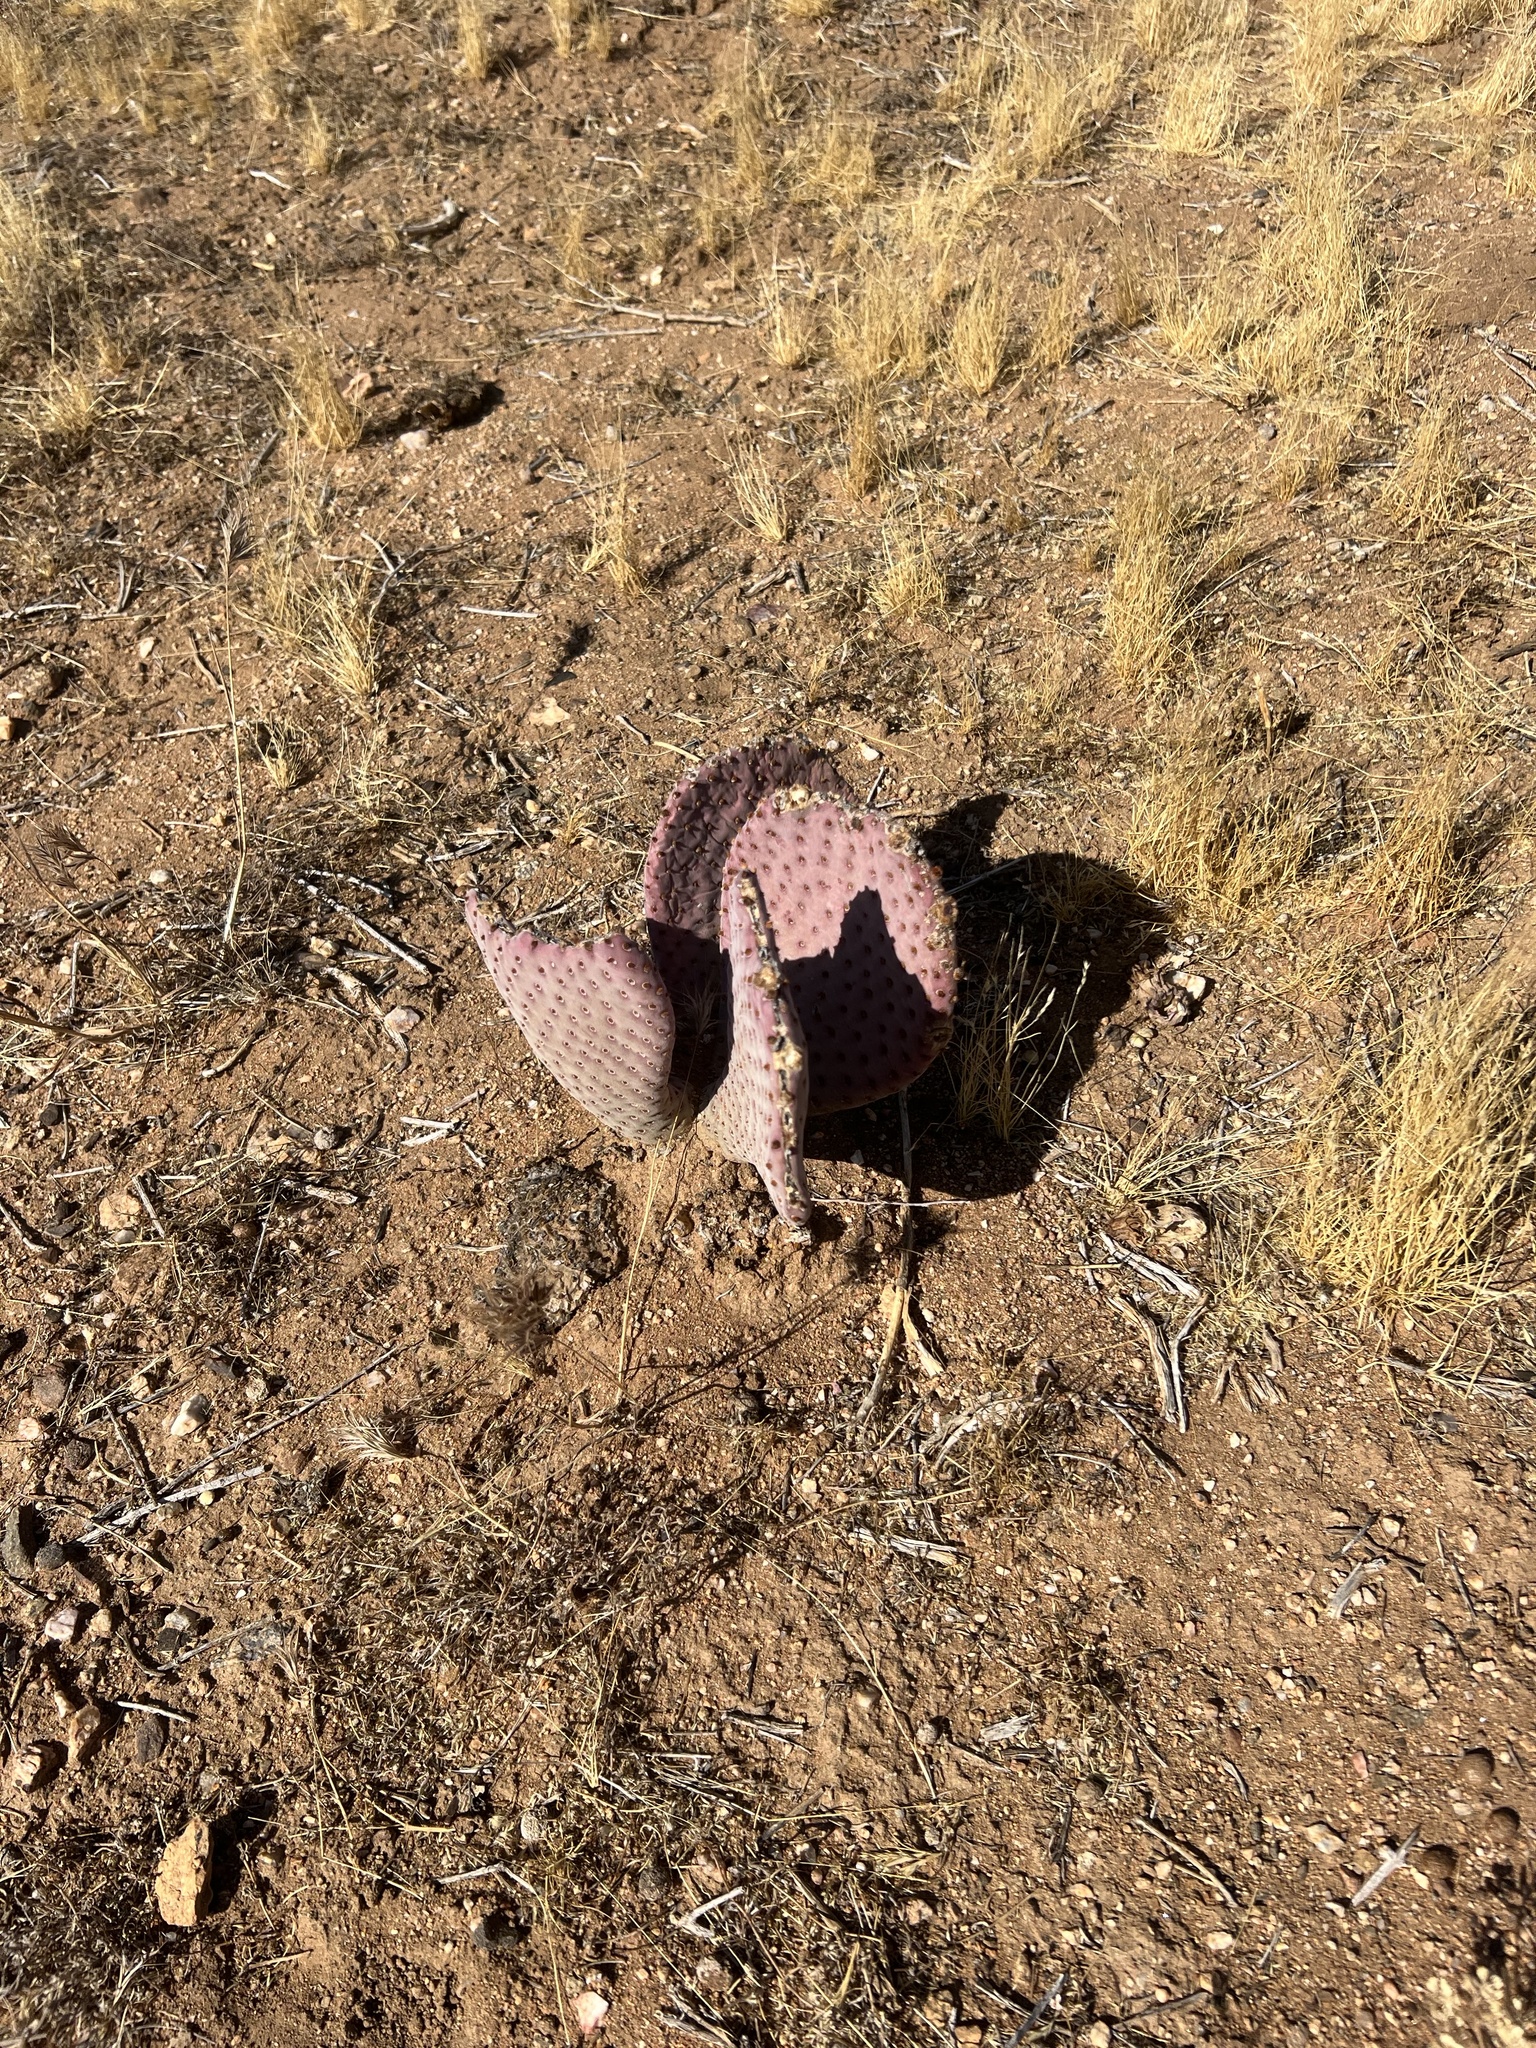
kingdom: Plantae
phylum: Tracheophyta
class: Magnoliopsida
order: Caryophyllales
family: Cactaceae
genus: Opuntia
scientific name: Opuntia basilaris
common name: Beavertail prickly-pear
